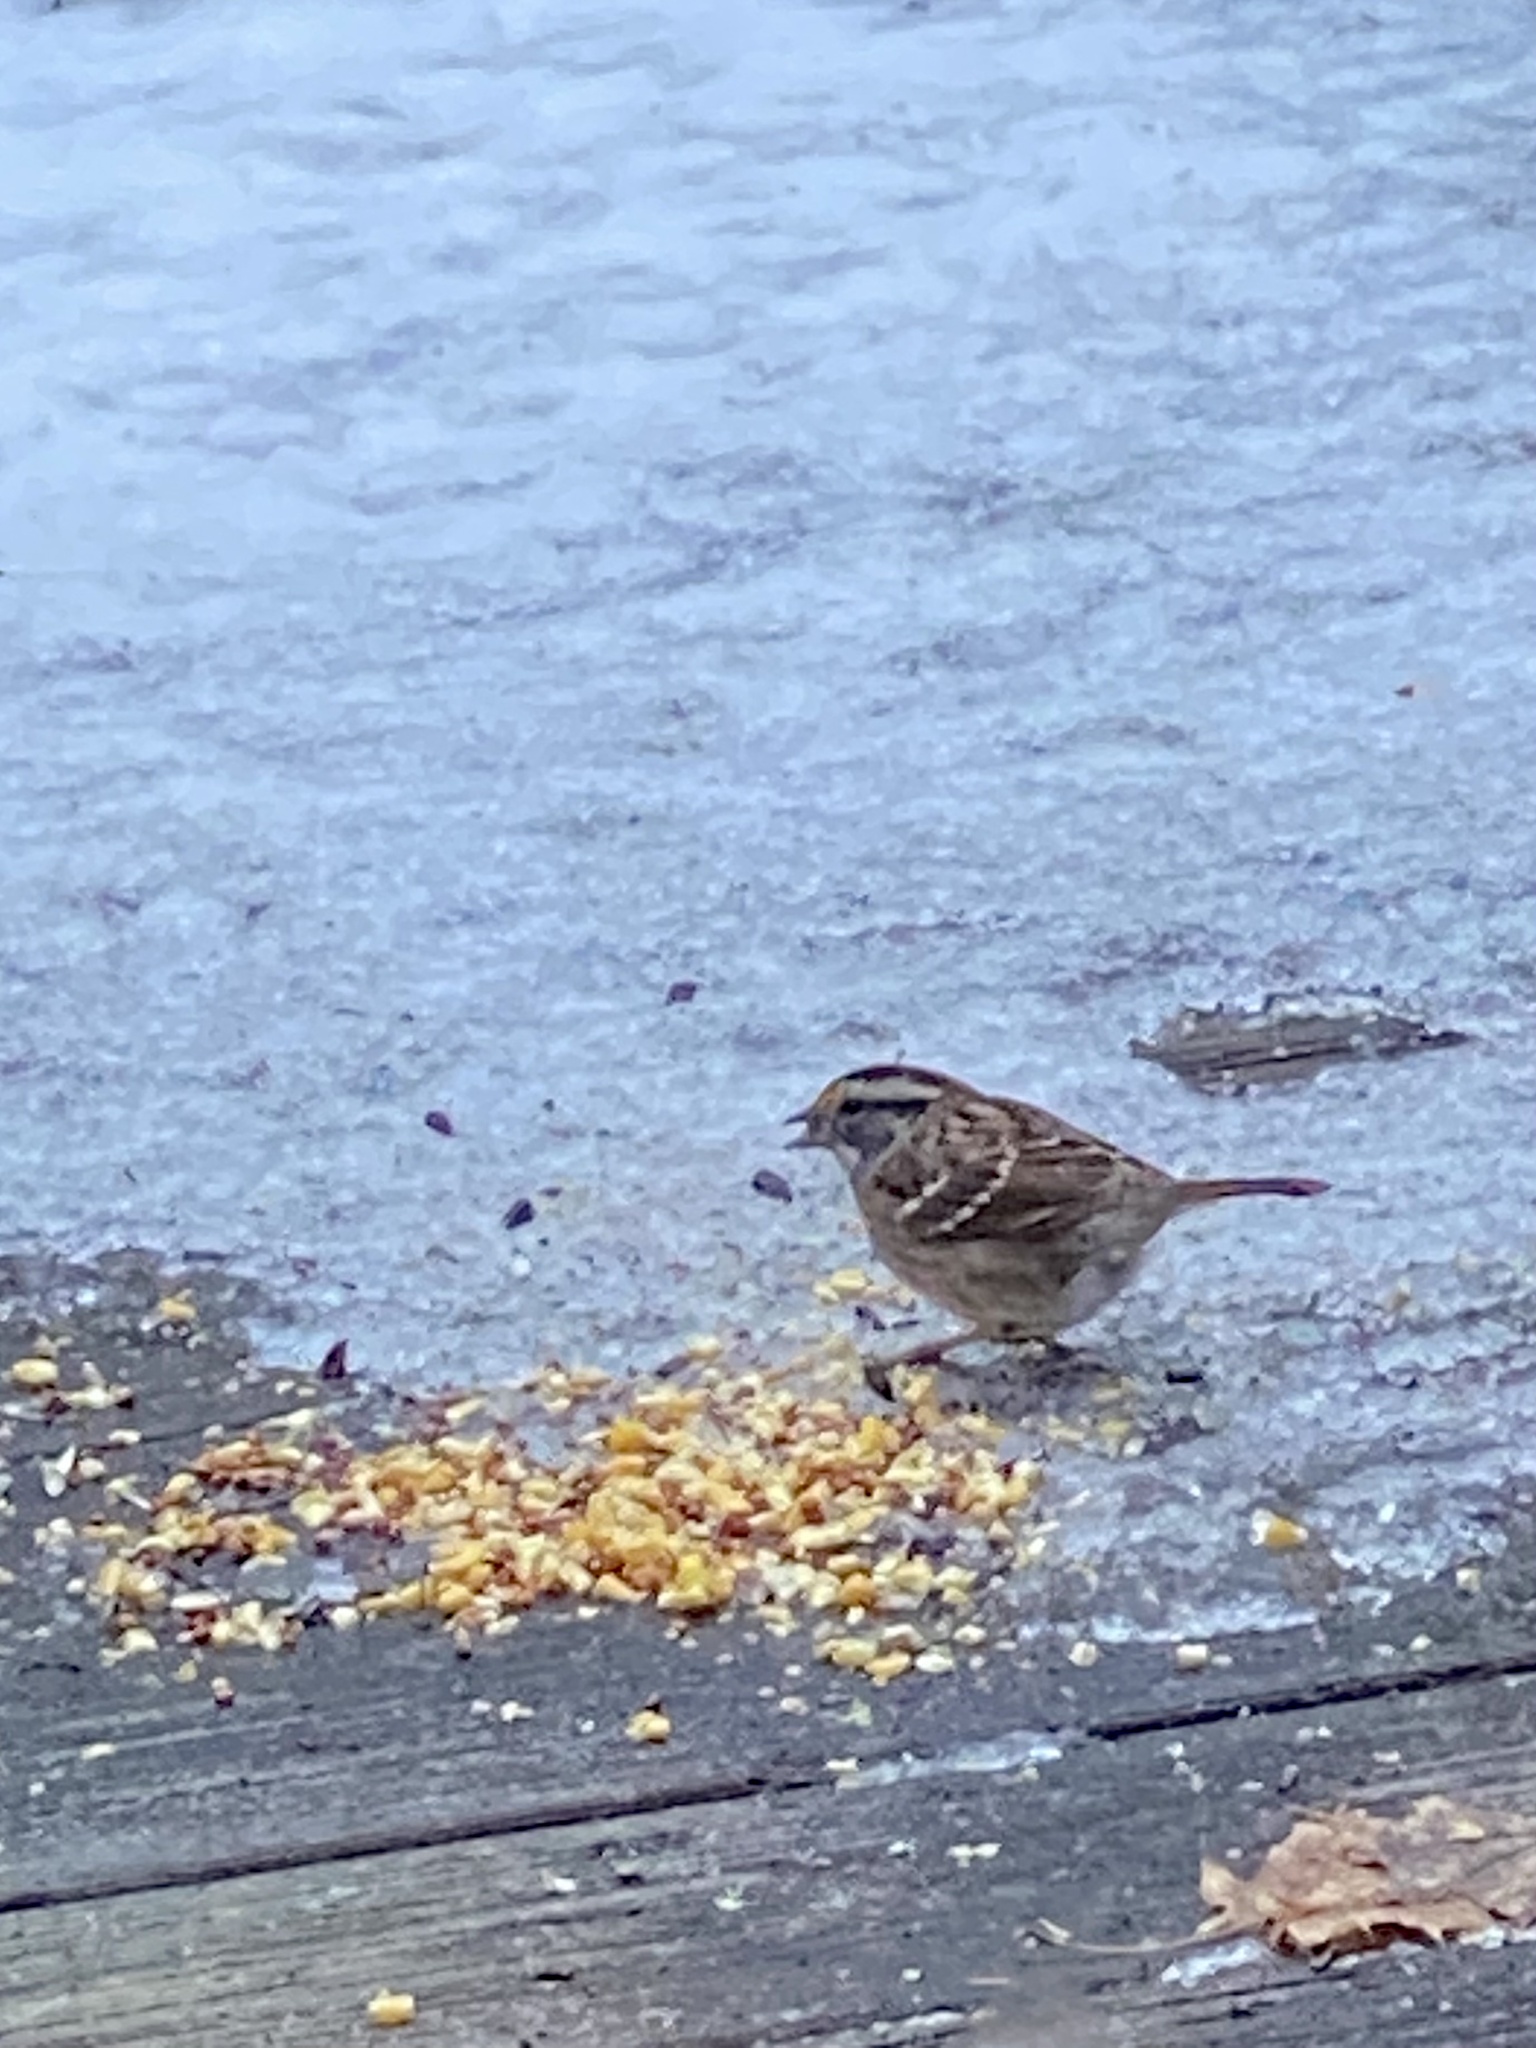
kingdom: Animalia
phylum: Chordata
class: Aves
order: Passeriformes
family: Passerellidae
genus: Zonotrichia
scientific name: Zonotrichia albicollis
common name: White-throated sparrow
